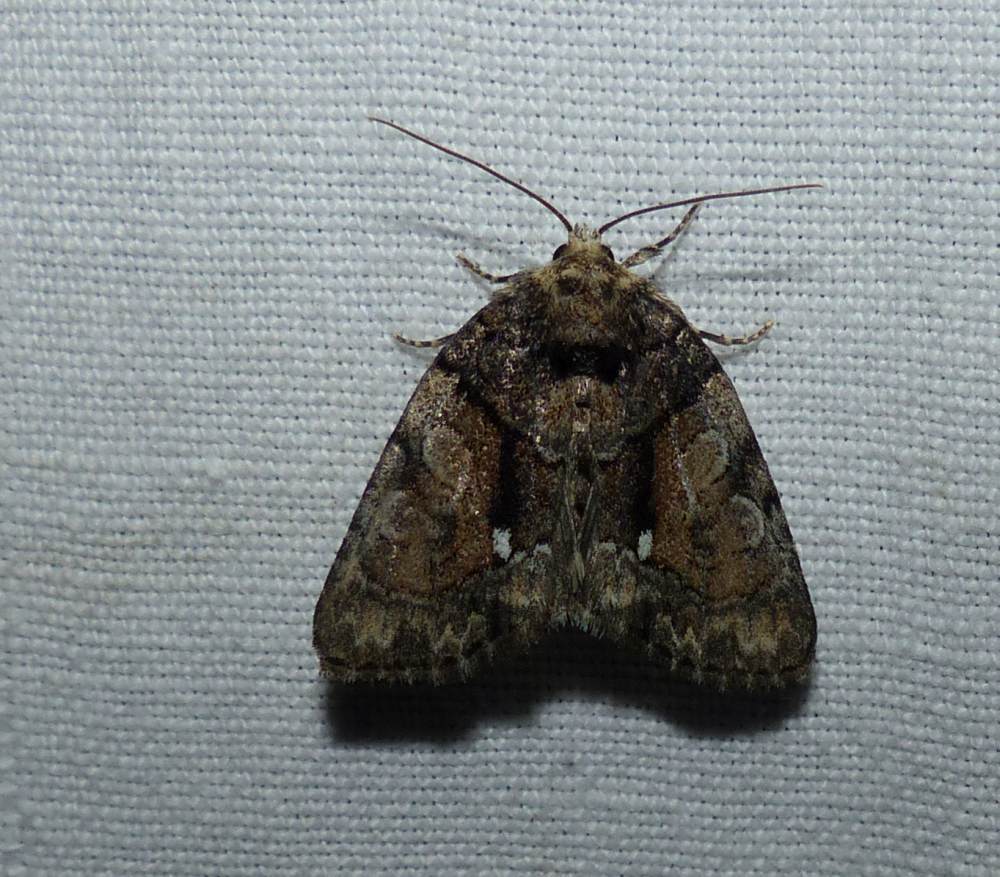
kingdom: Animalia
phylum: Arthropoda
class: Insecta
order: Lepidoptera
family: Noctuidae
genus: Chytonix
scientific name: Chytonix palliatricula
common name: Cloaked marvel
